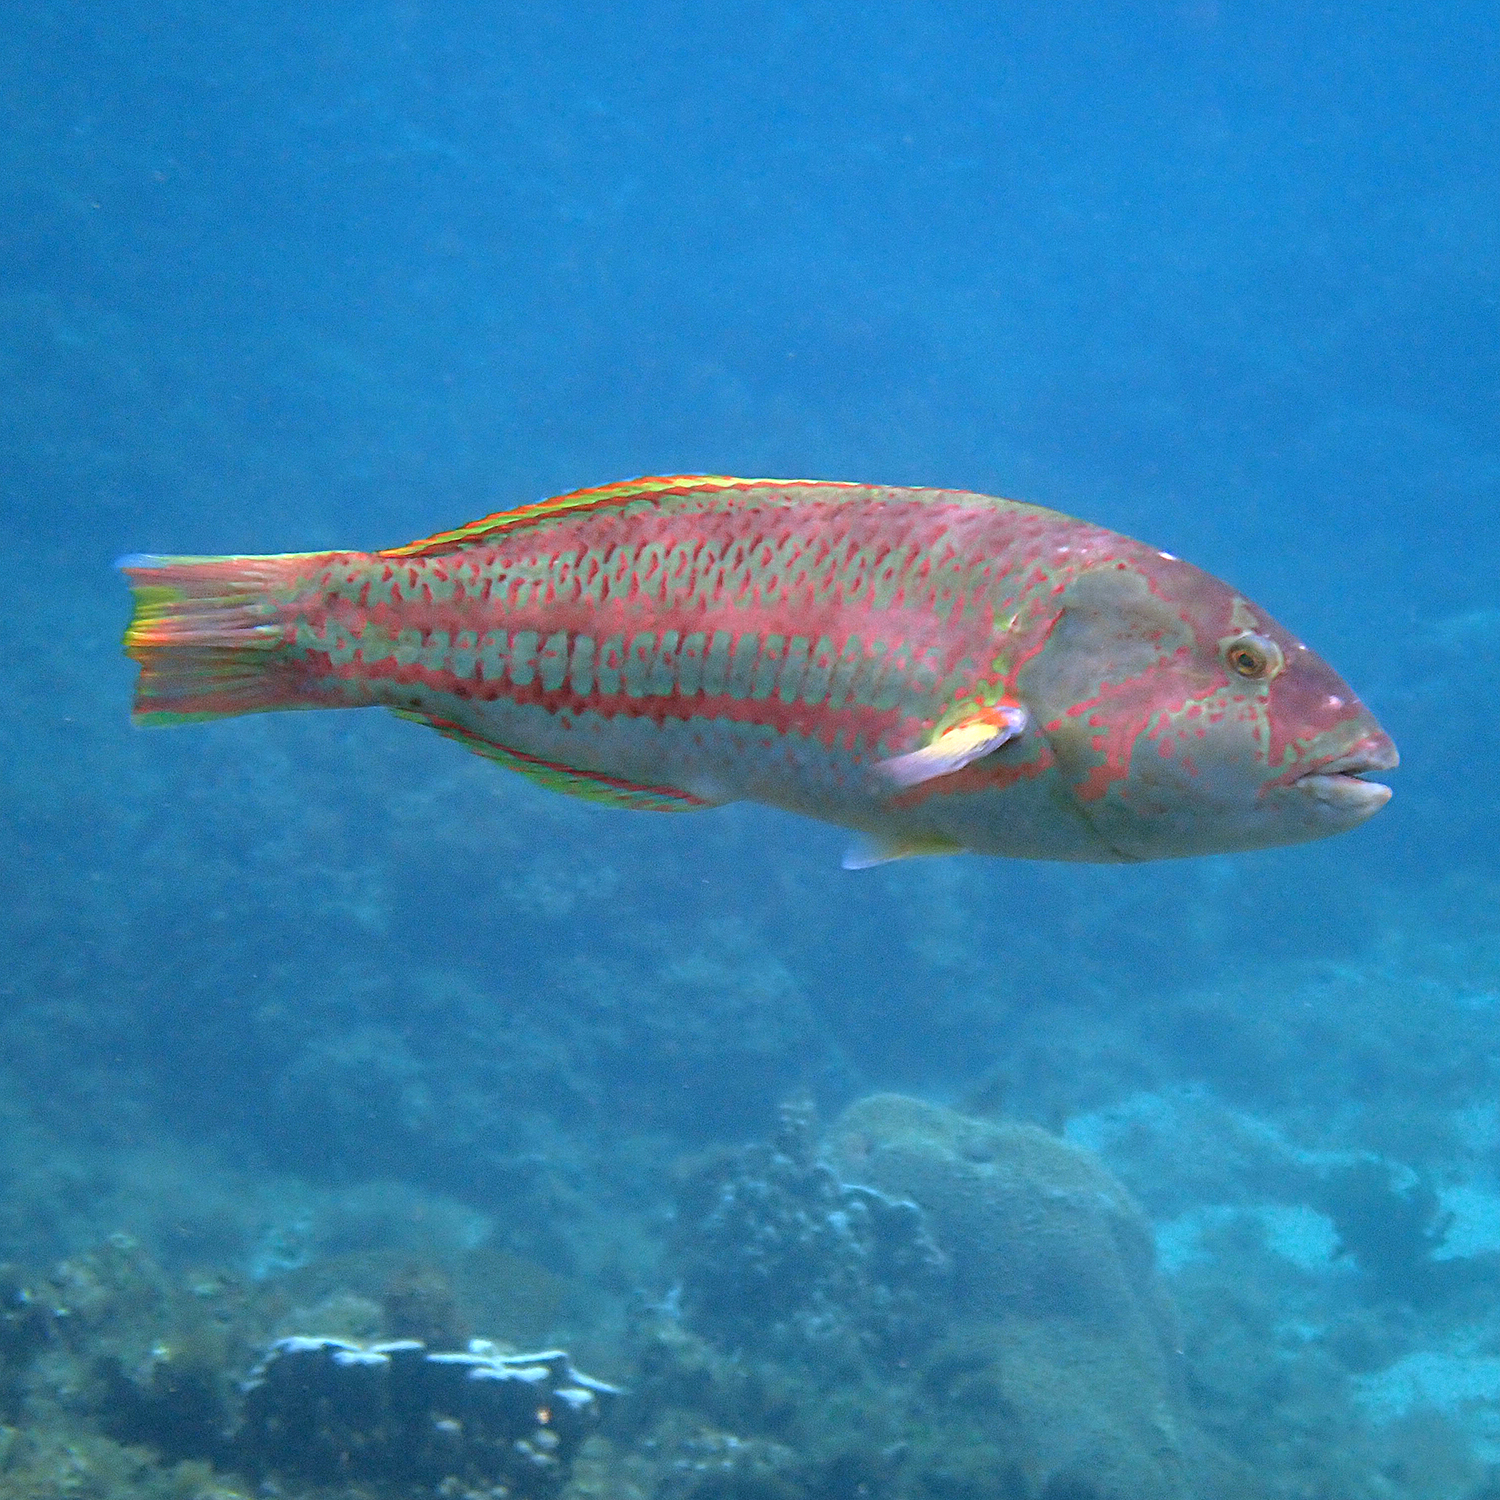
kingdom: Animalia
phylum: Chordata
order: Perciformes
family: Labridae
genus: Thalassoma
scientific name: Thalassoma purpureum
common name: Parrotfish
